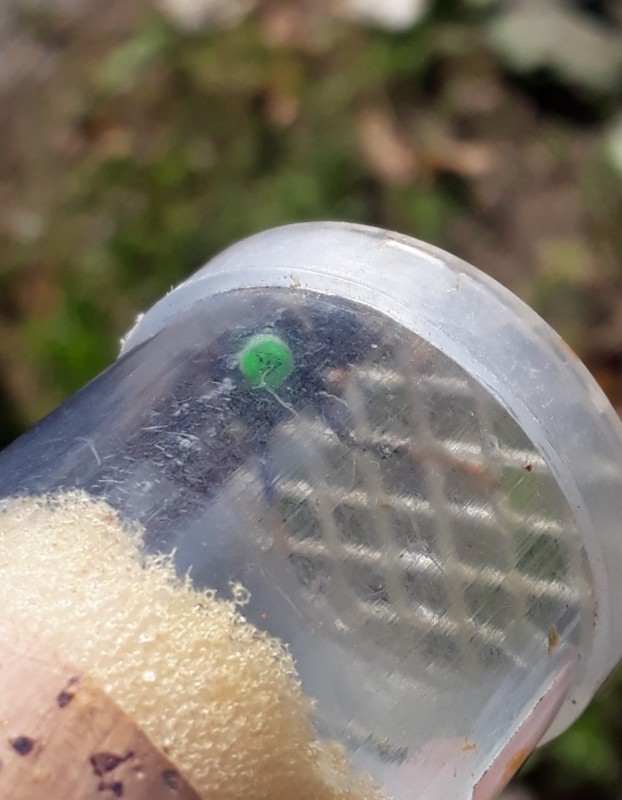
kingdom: Animalia
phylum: Arthropoda
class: Insecta
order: Hymenoptera
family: Vespidae
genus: Vespa
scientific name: Vespa velutina
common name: Asian hornet
